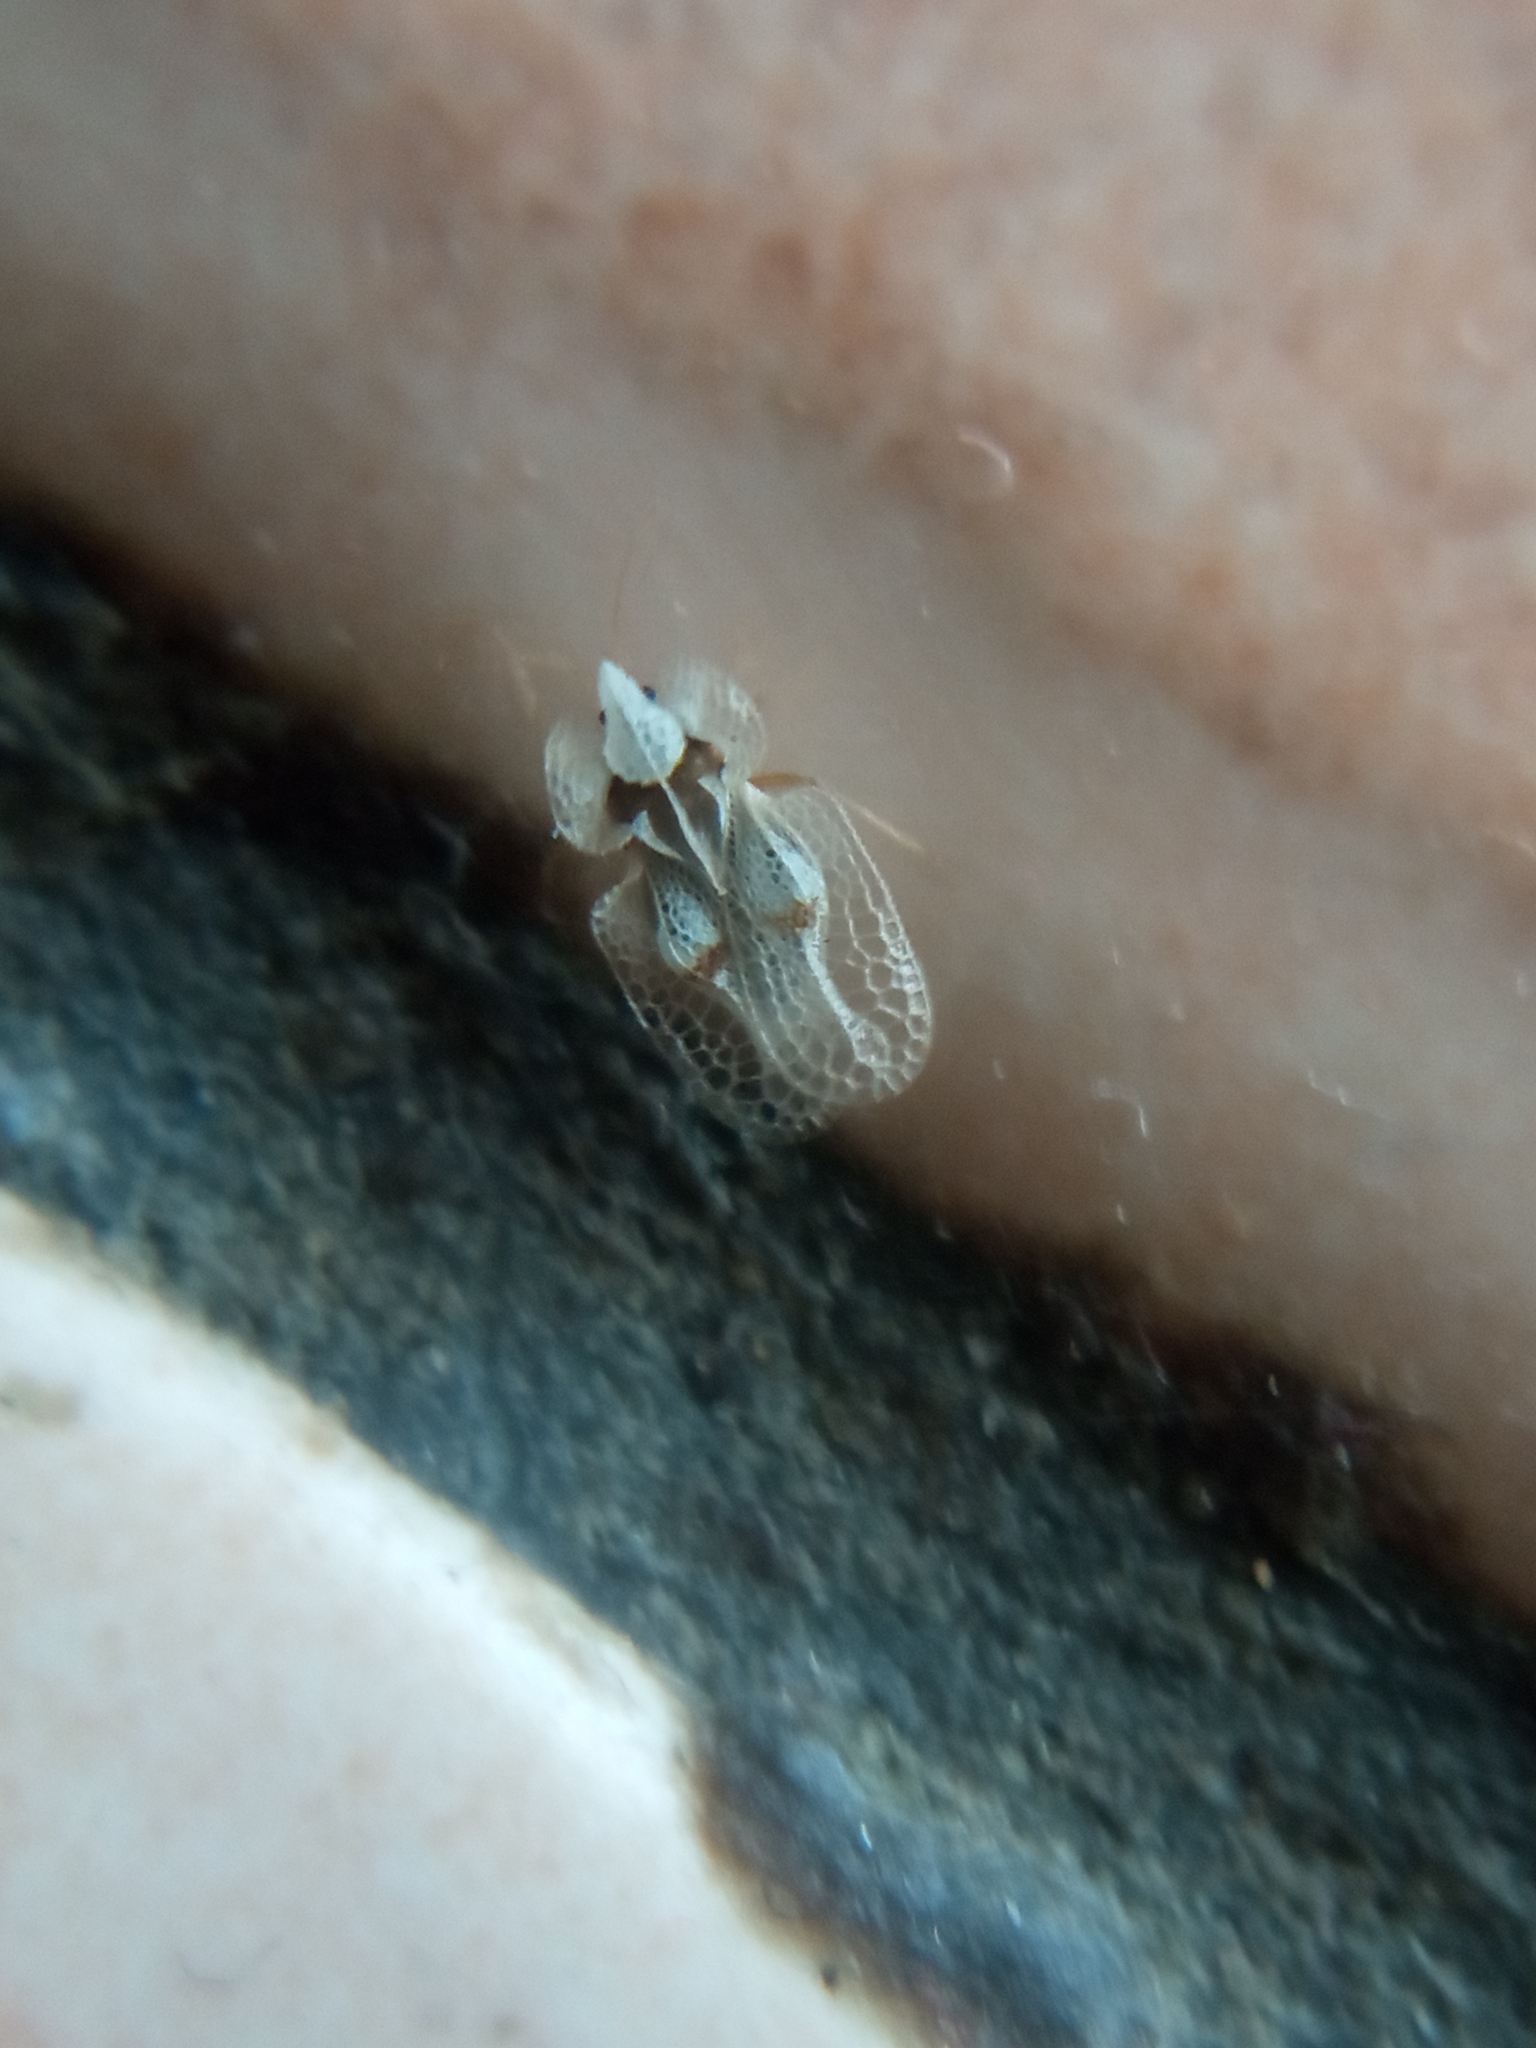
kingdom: Animalia
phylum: Arthropoda
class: Insecta
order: Hemiptera
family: Tingidae
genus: Corythucha
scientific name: Corythucha ciliata
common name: Sycamore lace bug
